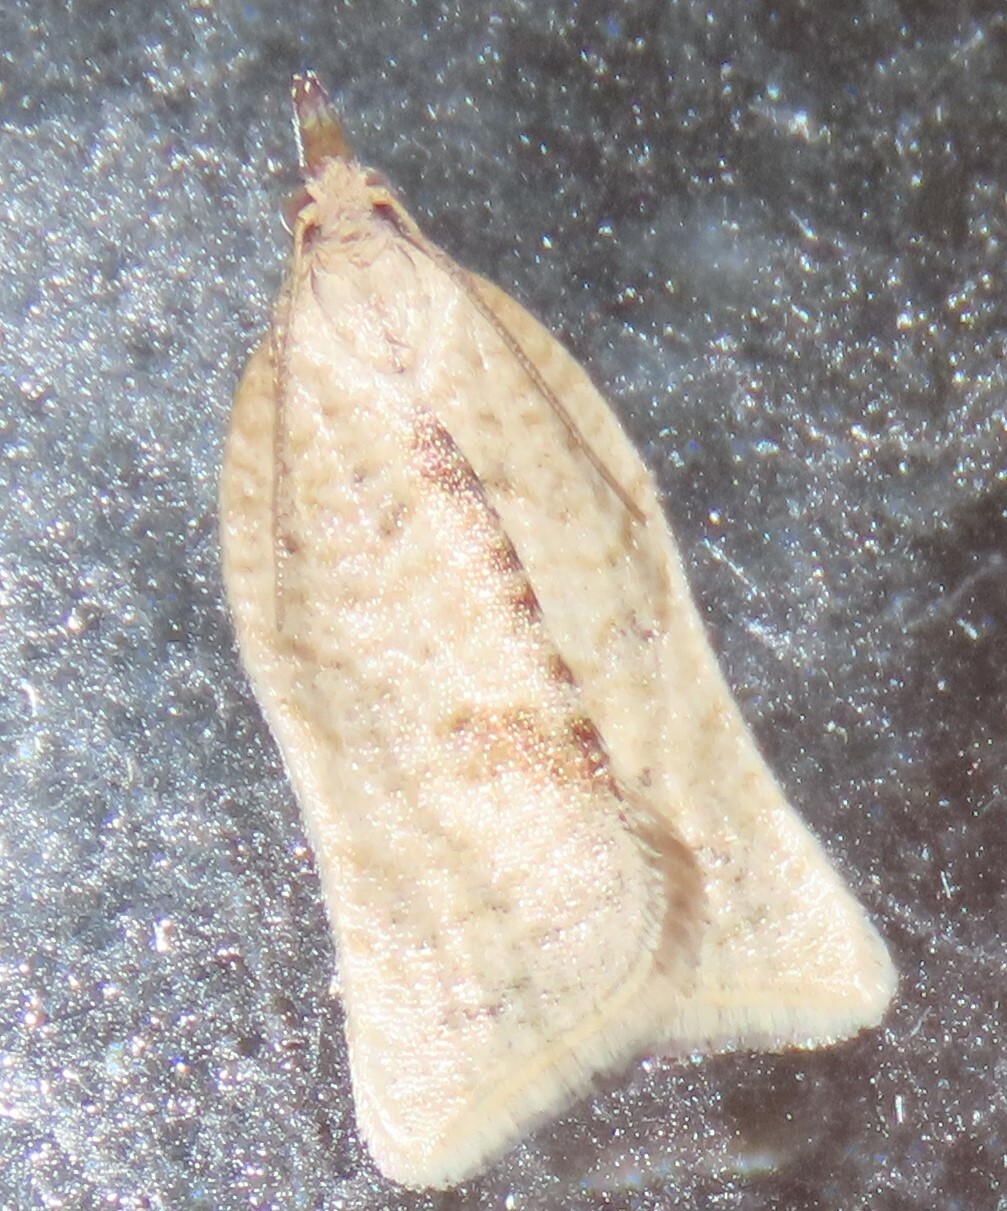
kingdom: Animalia
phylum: Arthropoda
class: Insecta
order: Lepidoptera
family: Tortricidae
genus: Catamacta
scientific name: Catamacta gavisana
